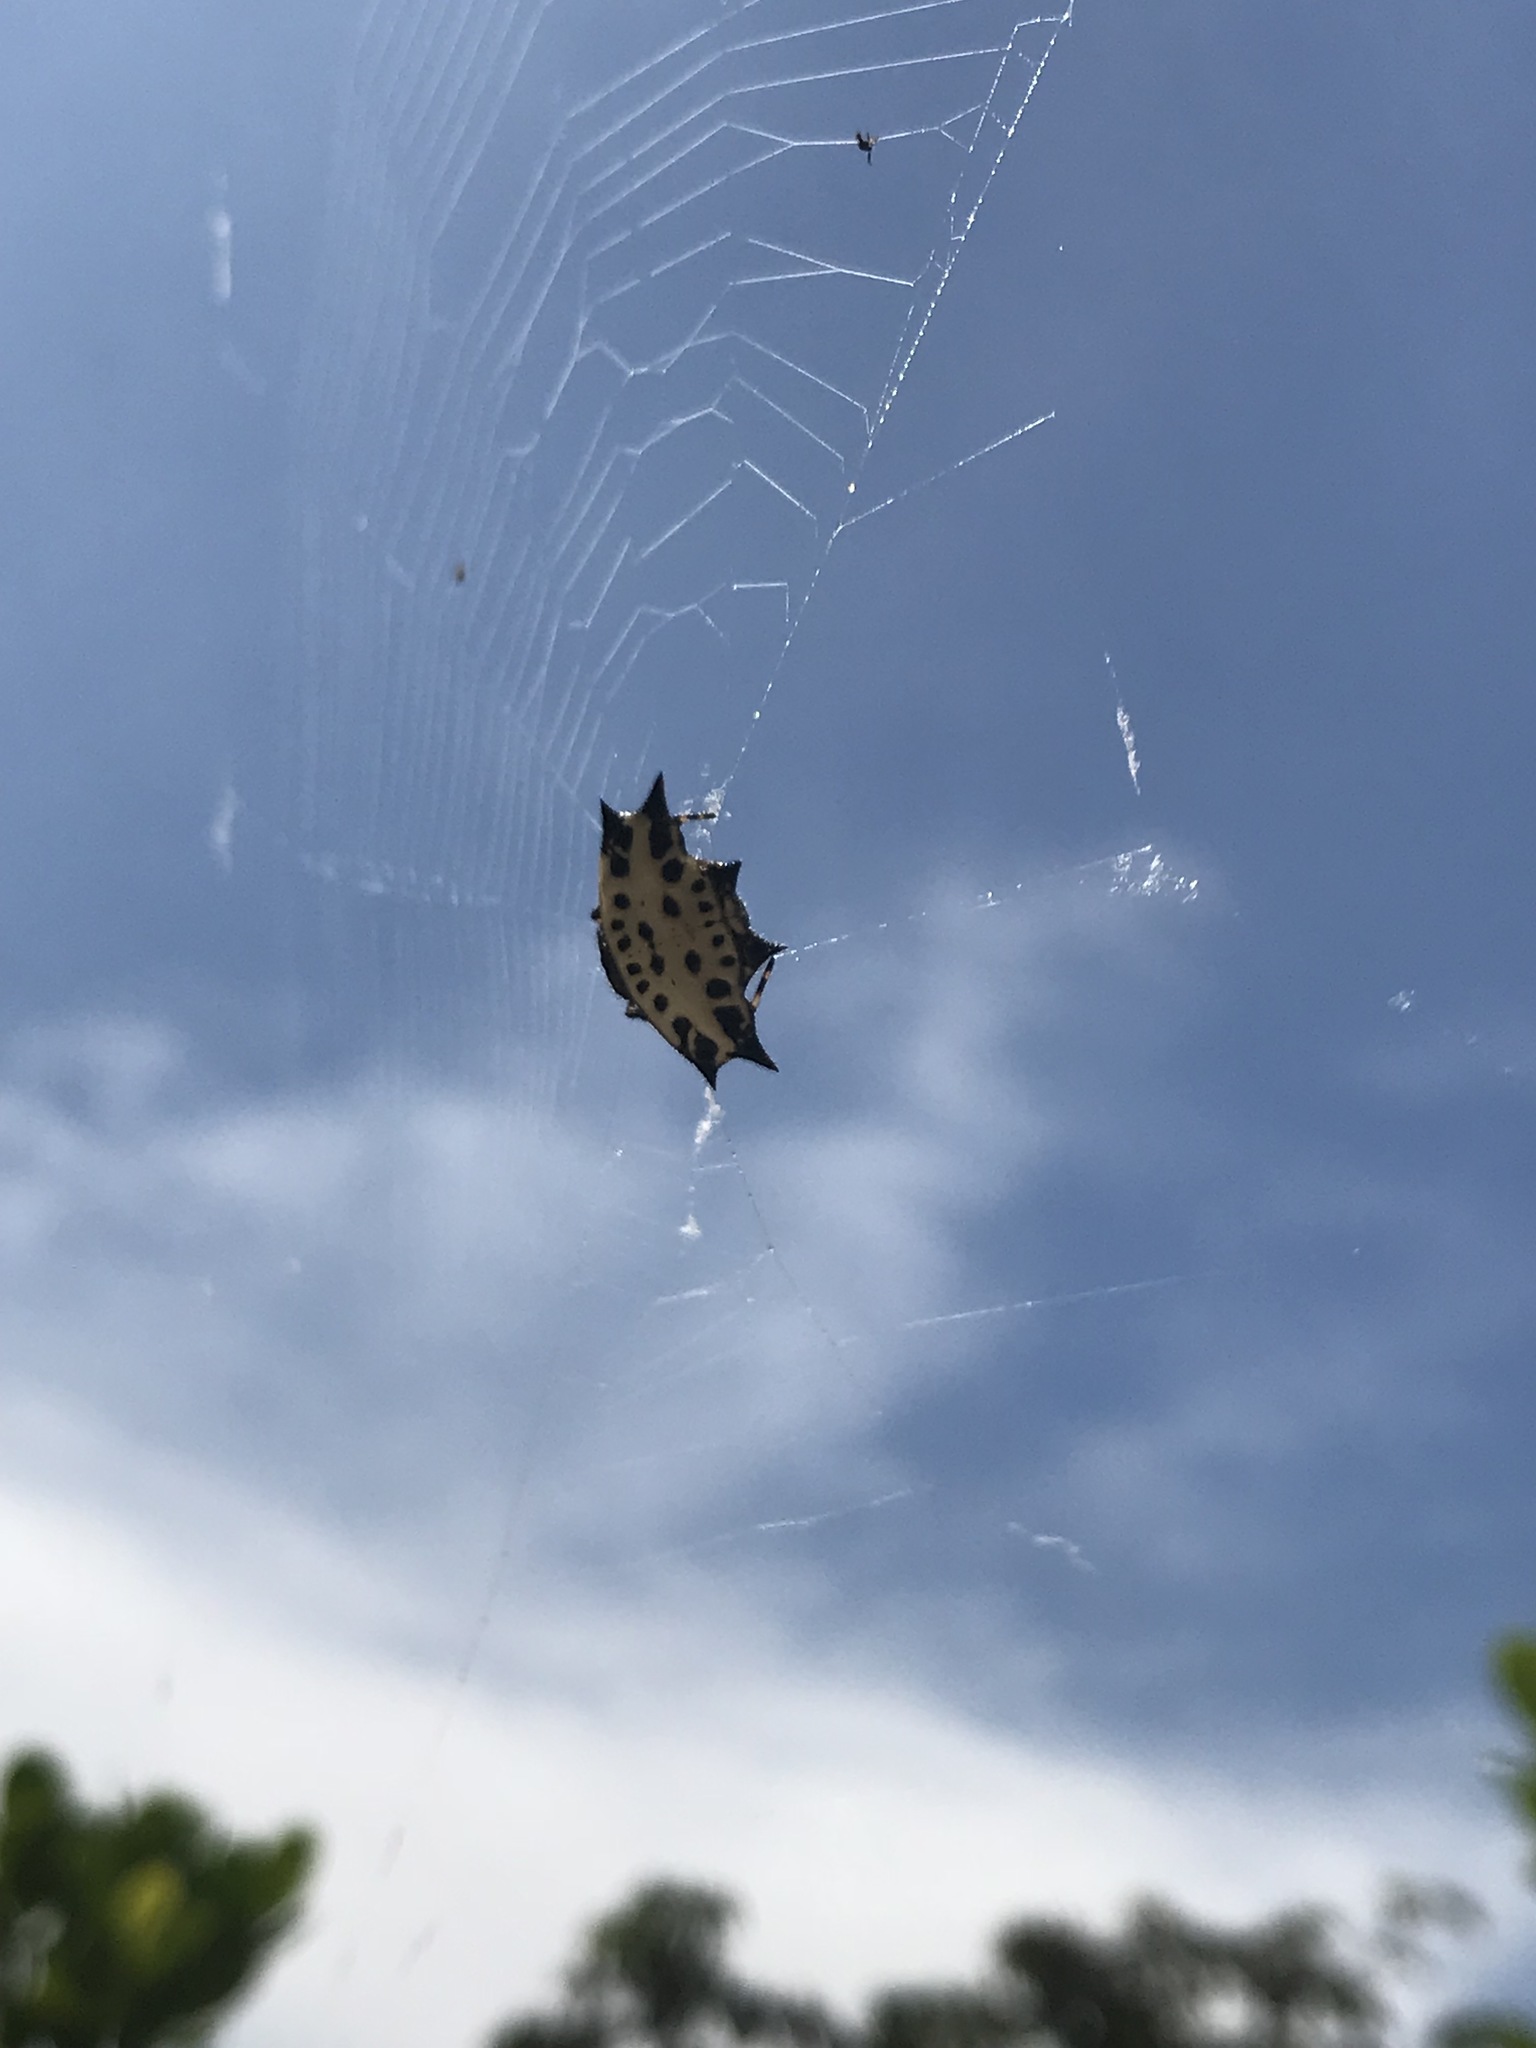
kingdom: Animalia
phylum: Arthropoda
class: Arachnida
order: Araneae
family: Araneidae
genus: Gasteracantha
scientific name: Gasteracantha cancriformis
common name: Orb weavers
